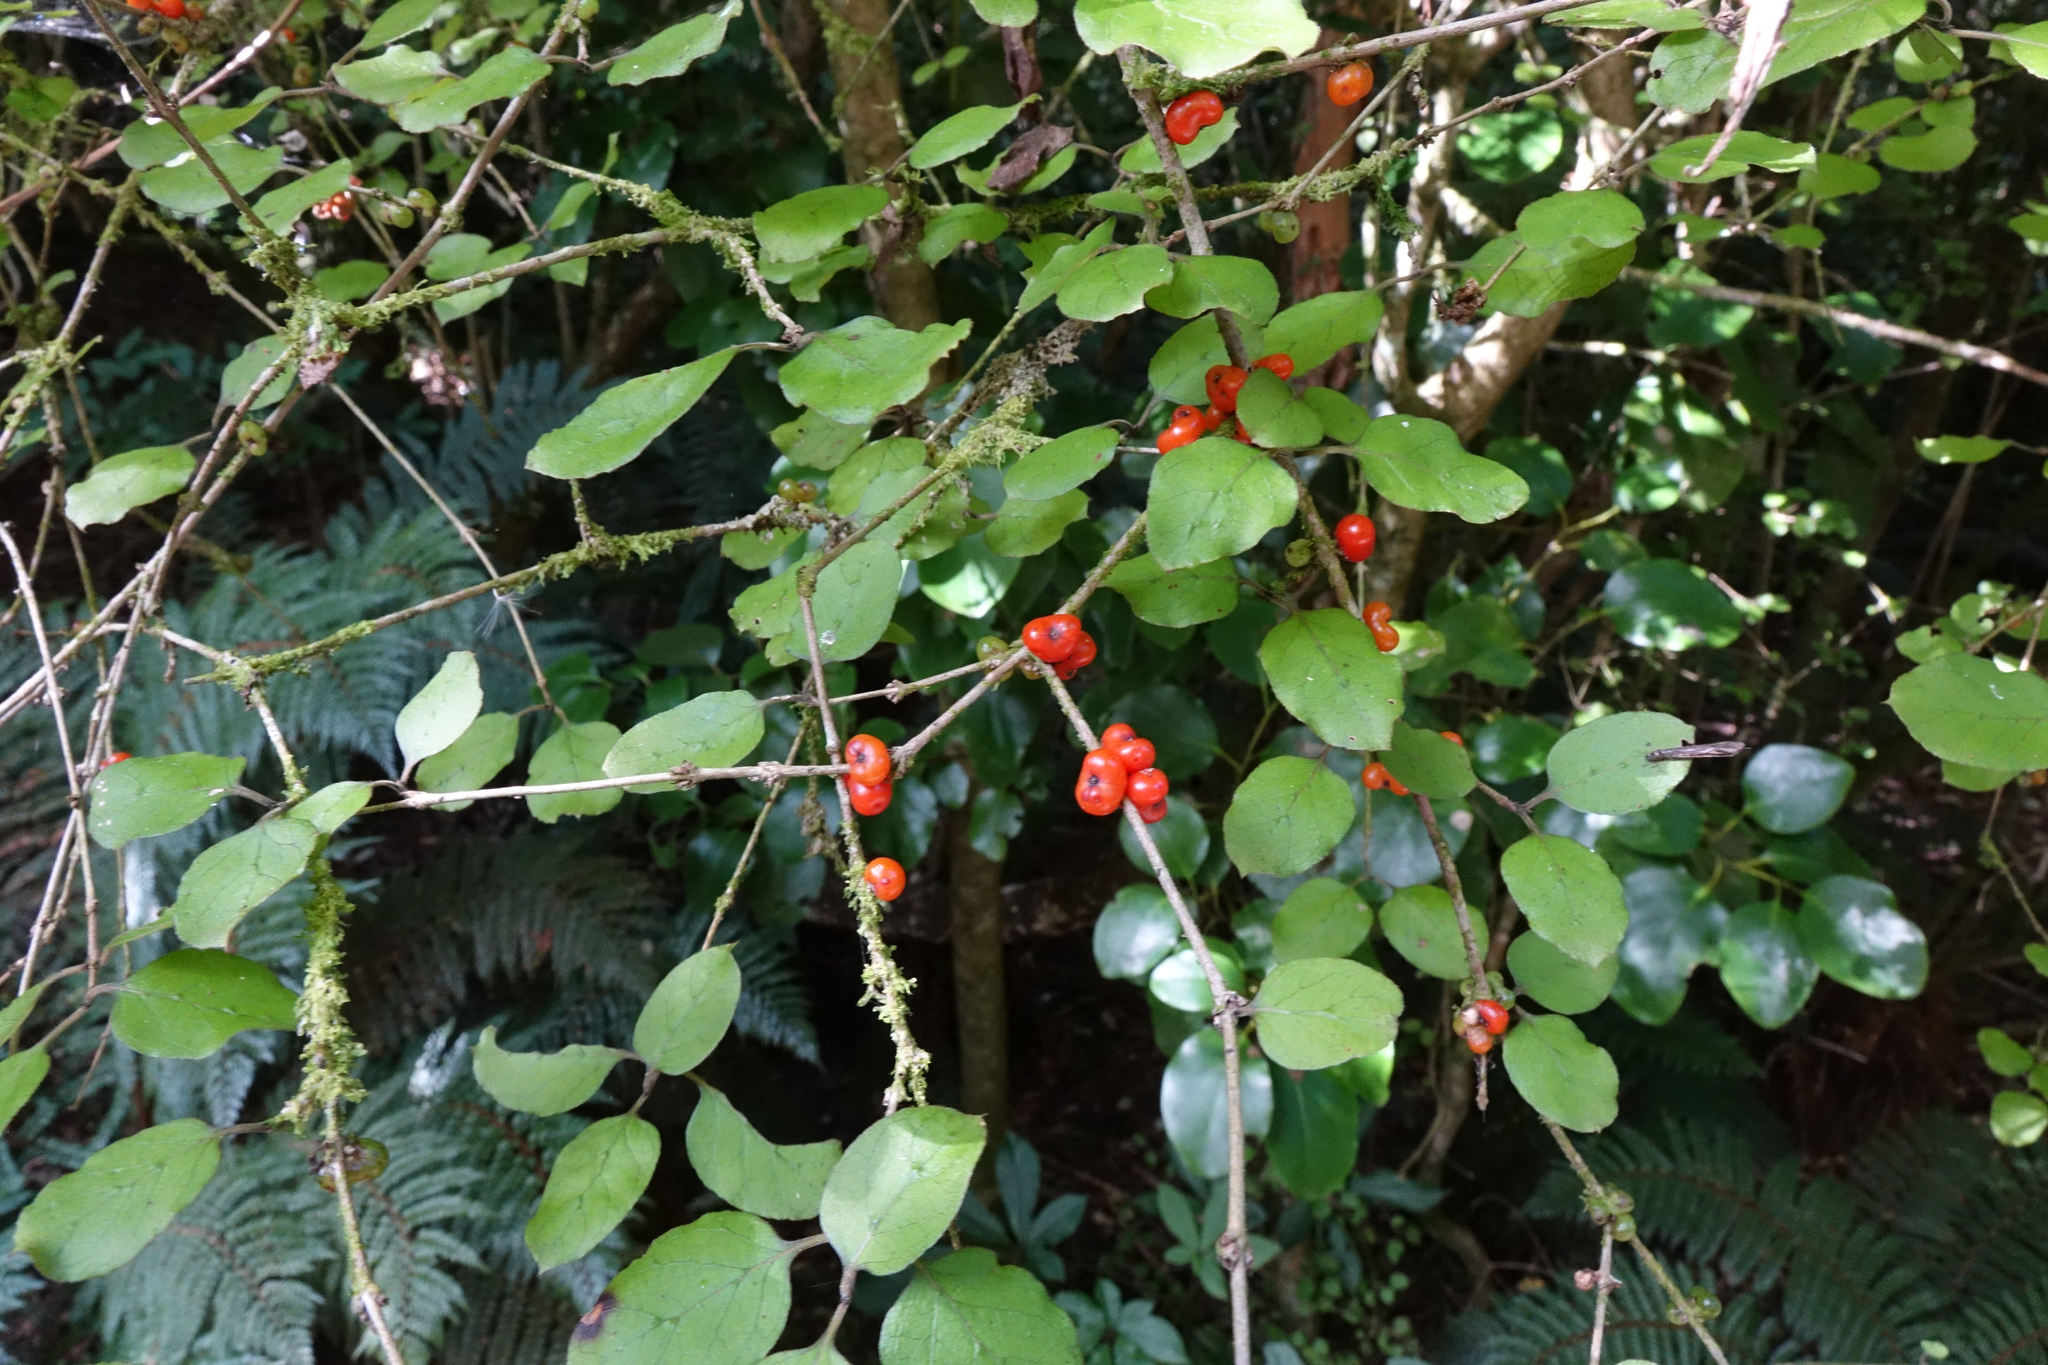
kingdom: Plantae
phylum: Tracheophyta
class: Magnoliopsida
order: Gentianales
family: Rubiaceae
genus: Coprosma
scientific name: Coprosma rotundifolia
